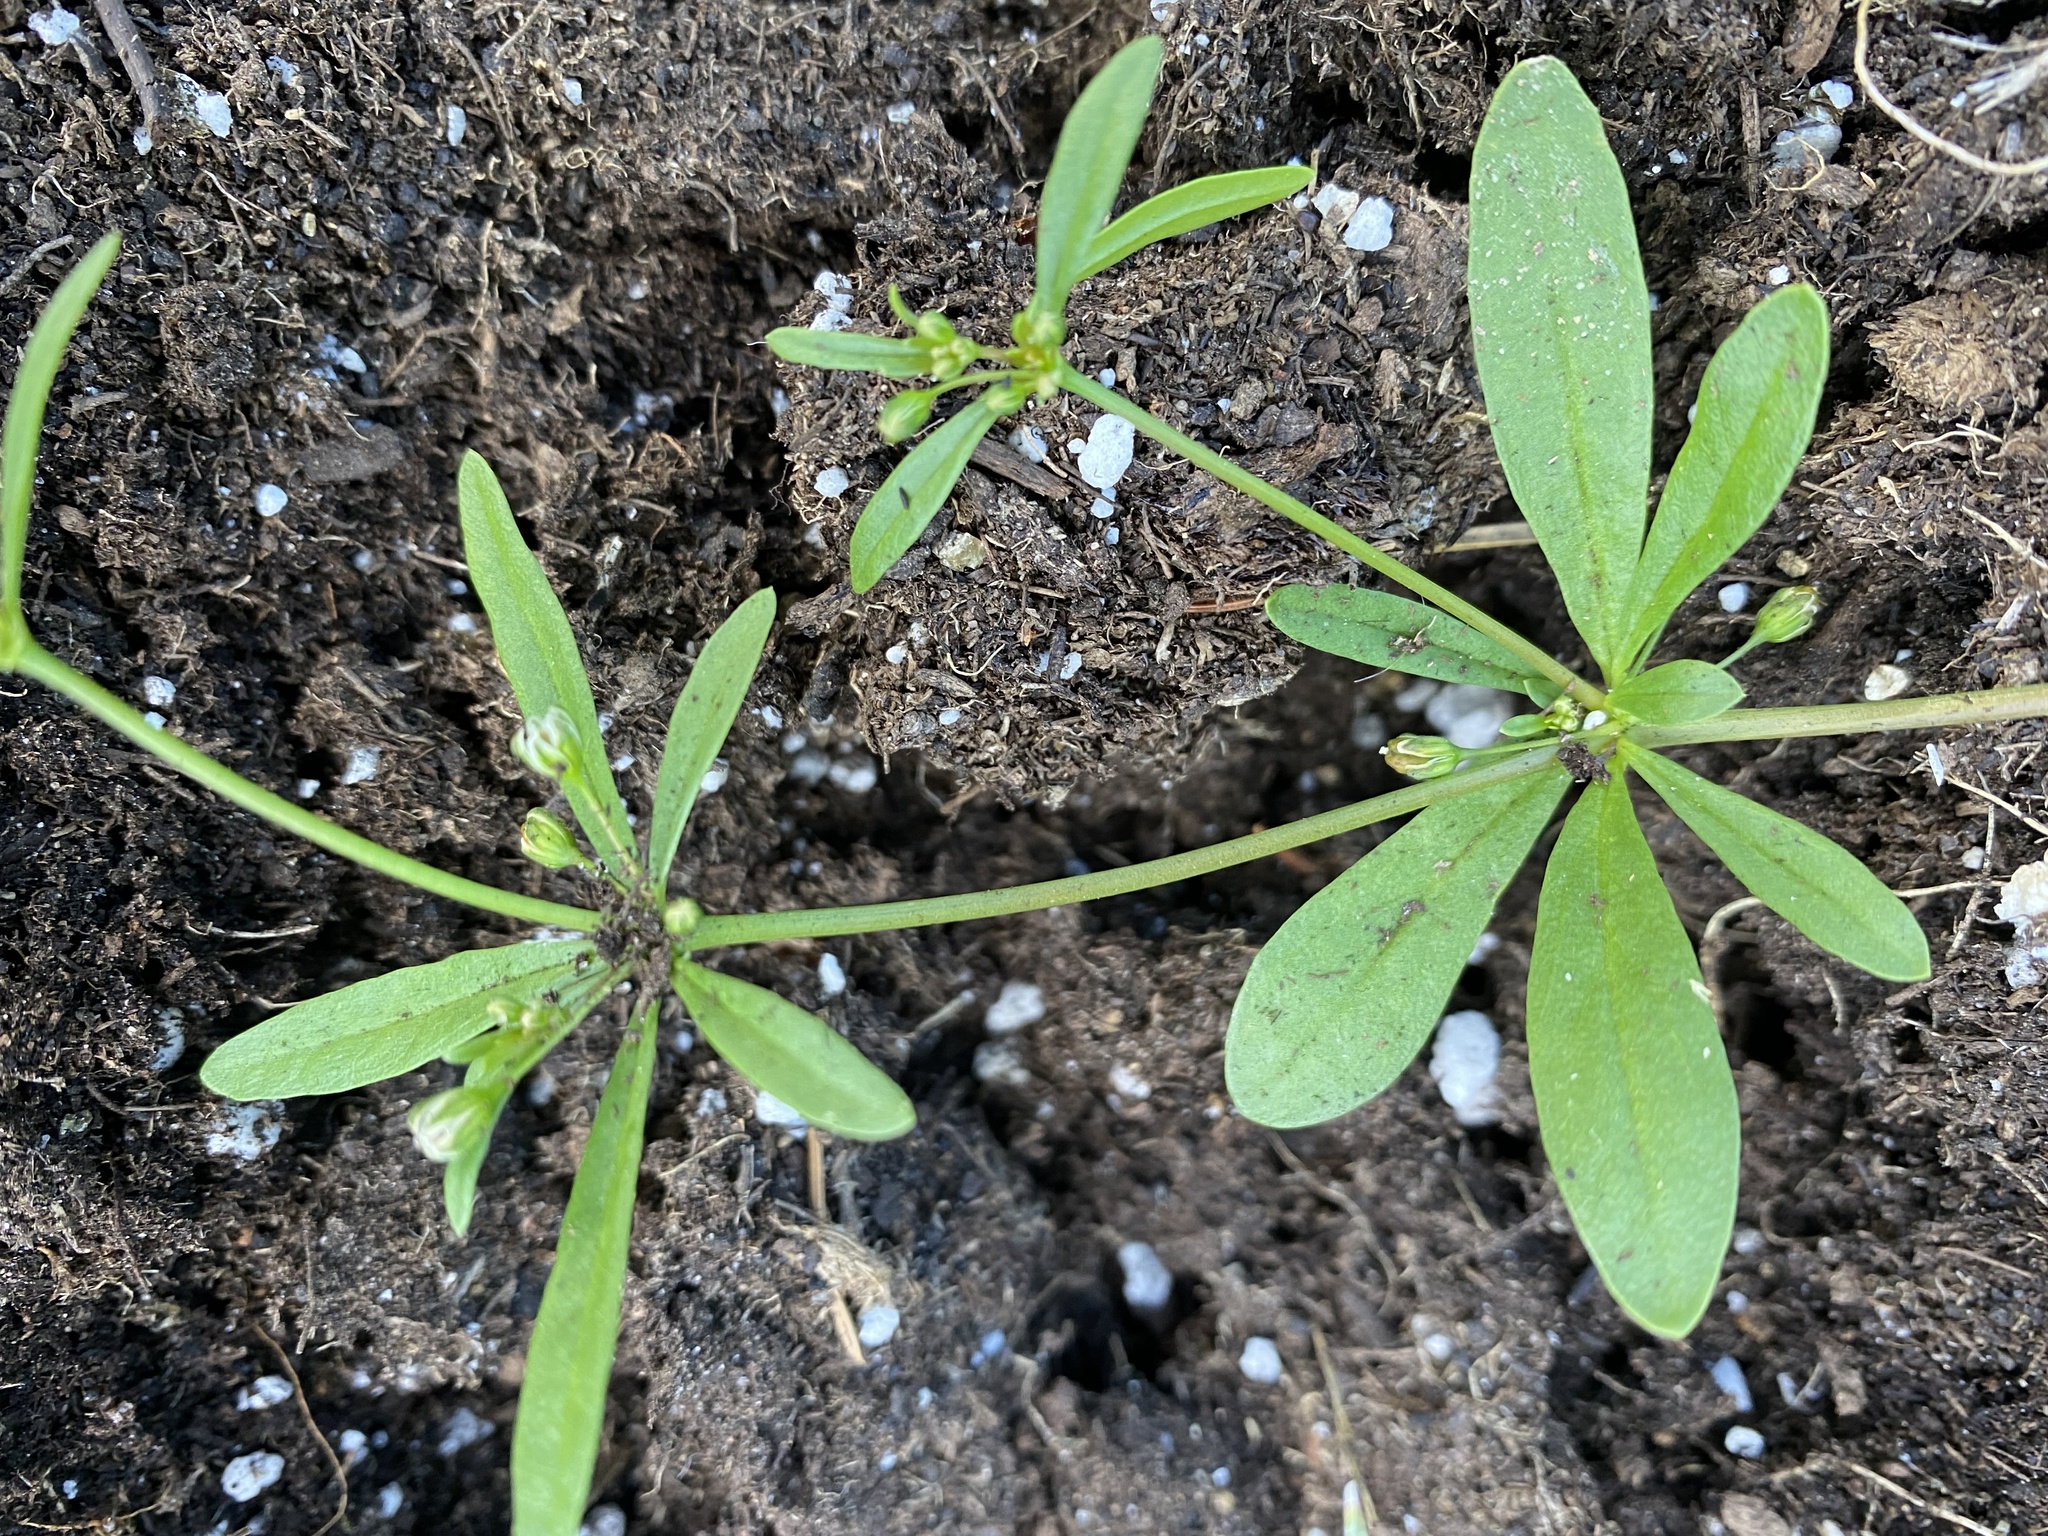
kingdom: Plantae
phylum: Tracheophyta
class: Magnoliopsida
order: Caryophyllales
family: Molluginaceae
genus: Mollugo
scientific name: Mollugo verticillata
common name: Green carpetweed
